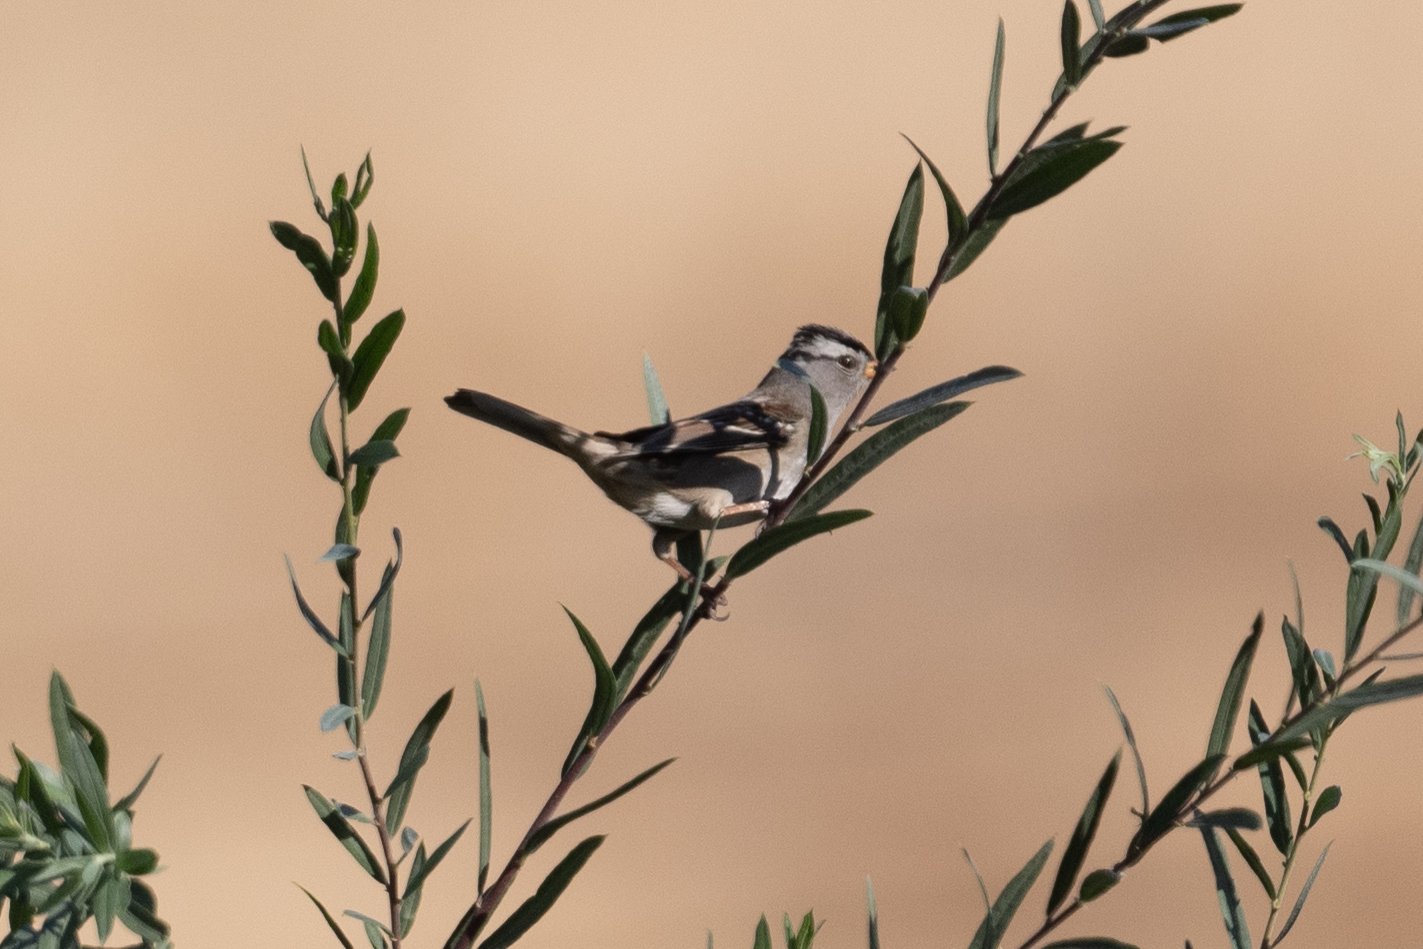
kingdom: Animalia
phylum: Chordata
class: Aves
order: Passeriformes
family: Passerellidae
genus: Zonotrichia
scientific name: Zonotrichia leucophrys
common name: White-crowned sparrow
